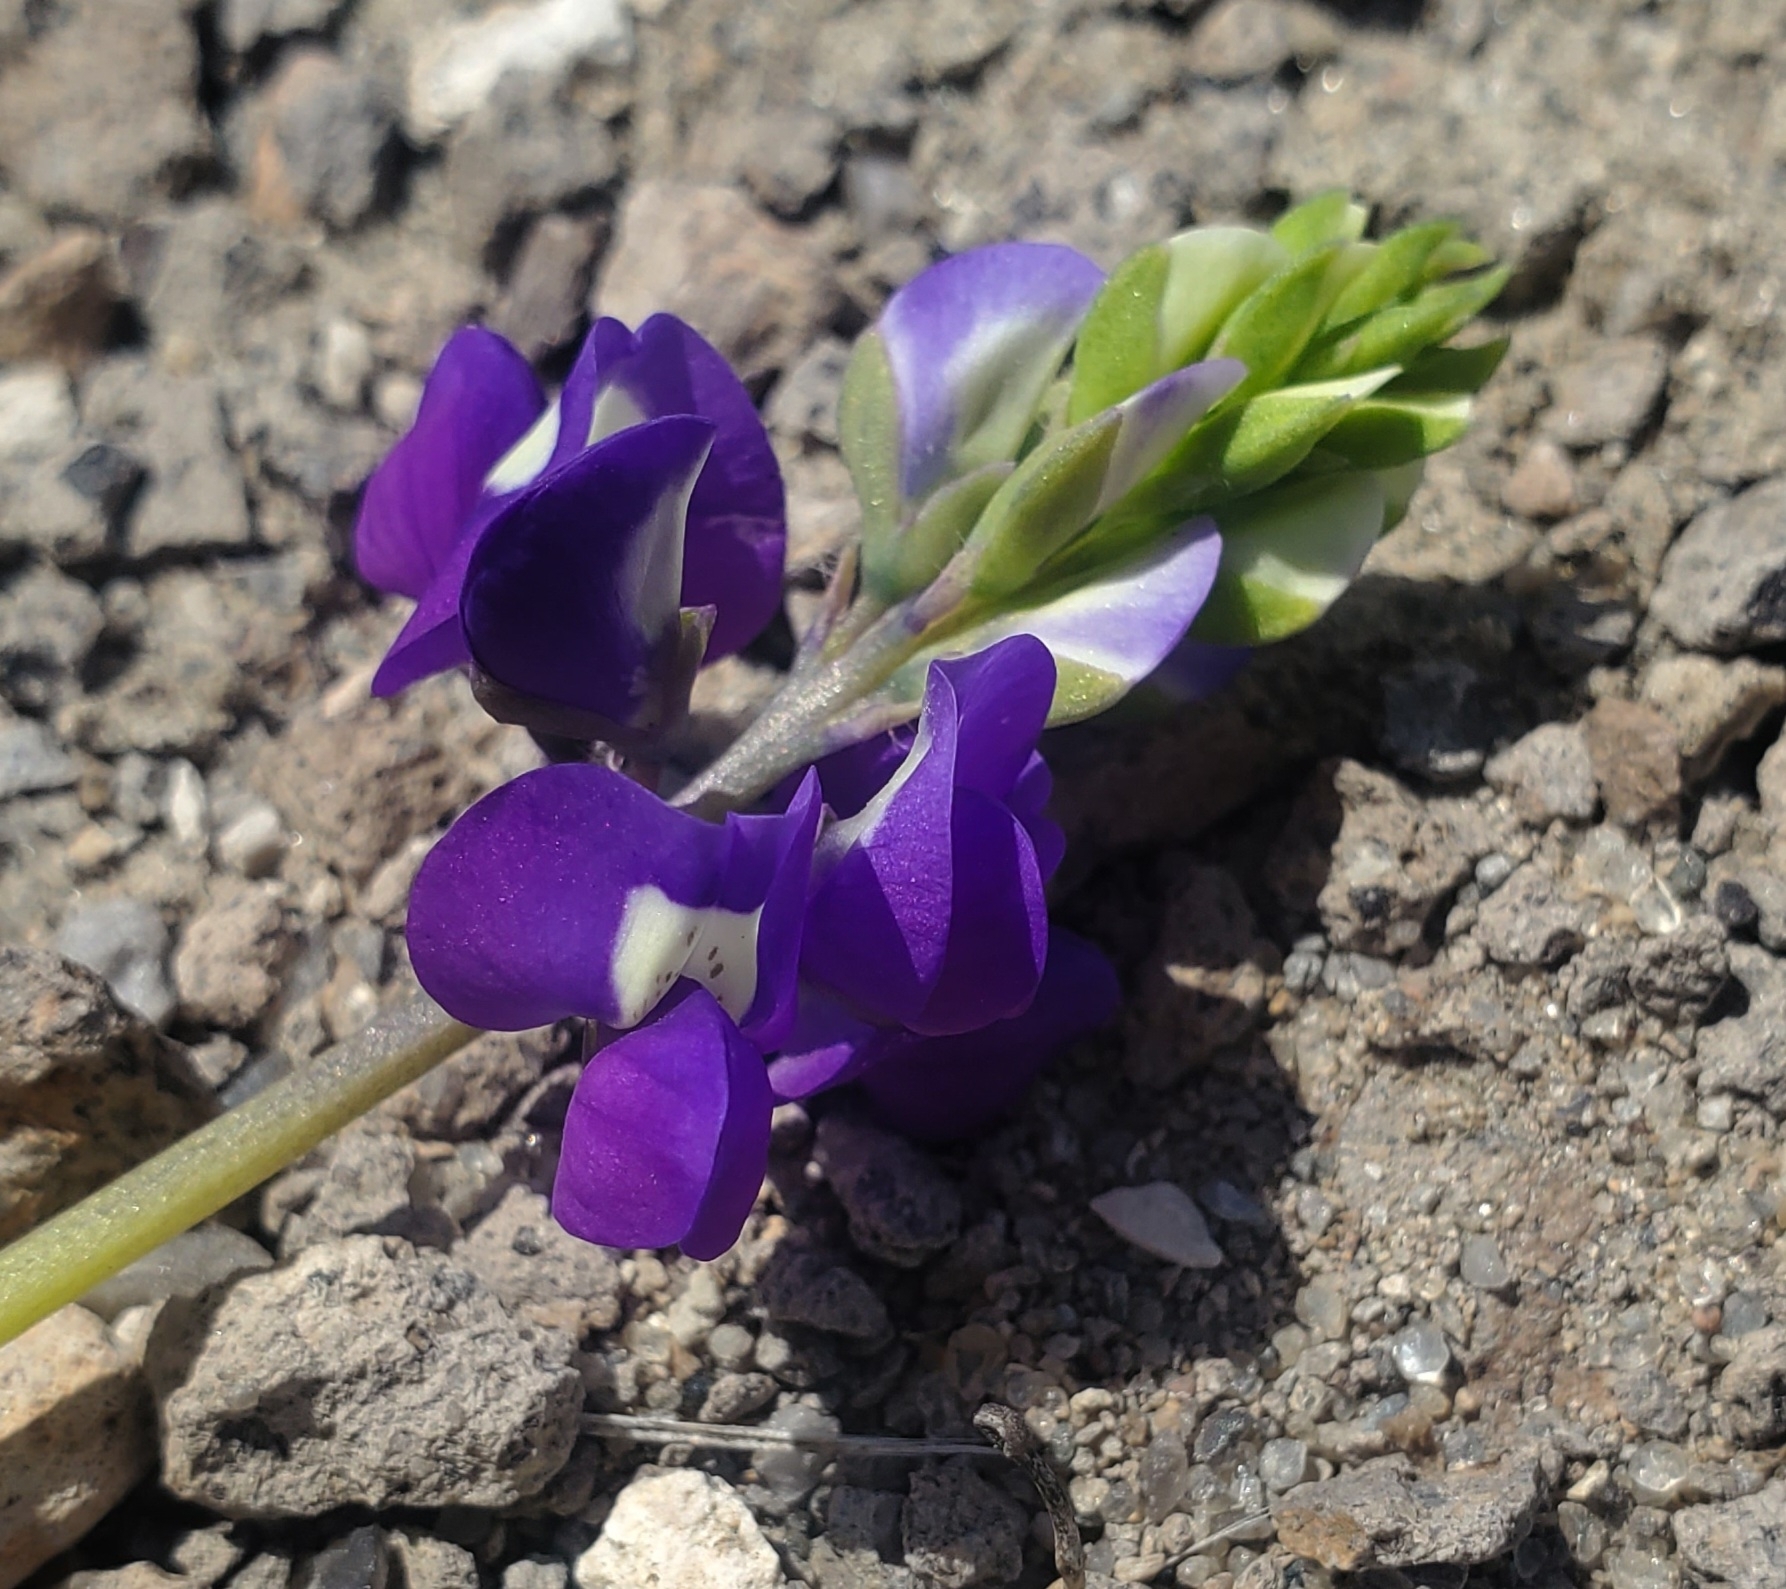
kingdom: Plantae
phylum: Tracheophyta
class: Magnoliopsida
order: Fabales
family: Fabaceae
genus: Lupinus
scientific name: Lupinus
